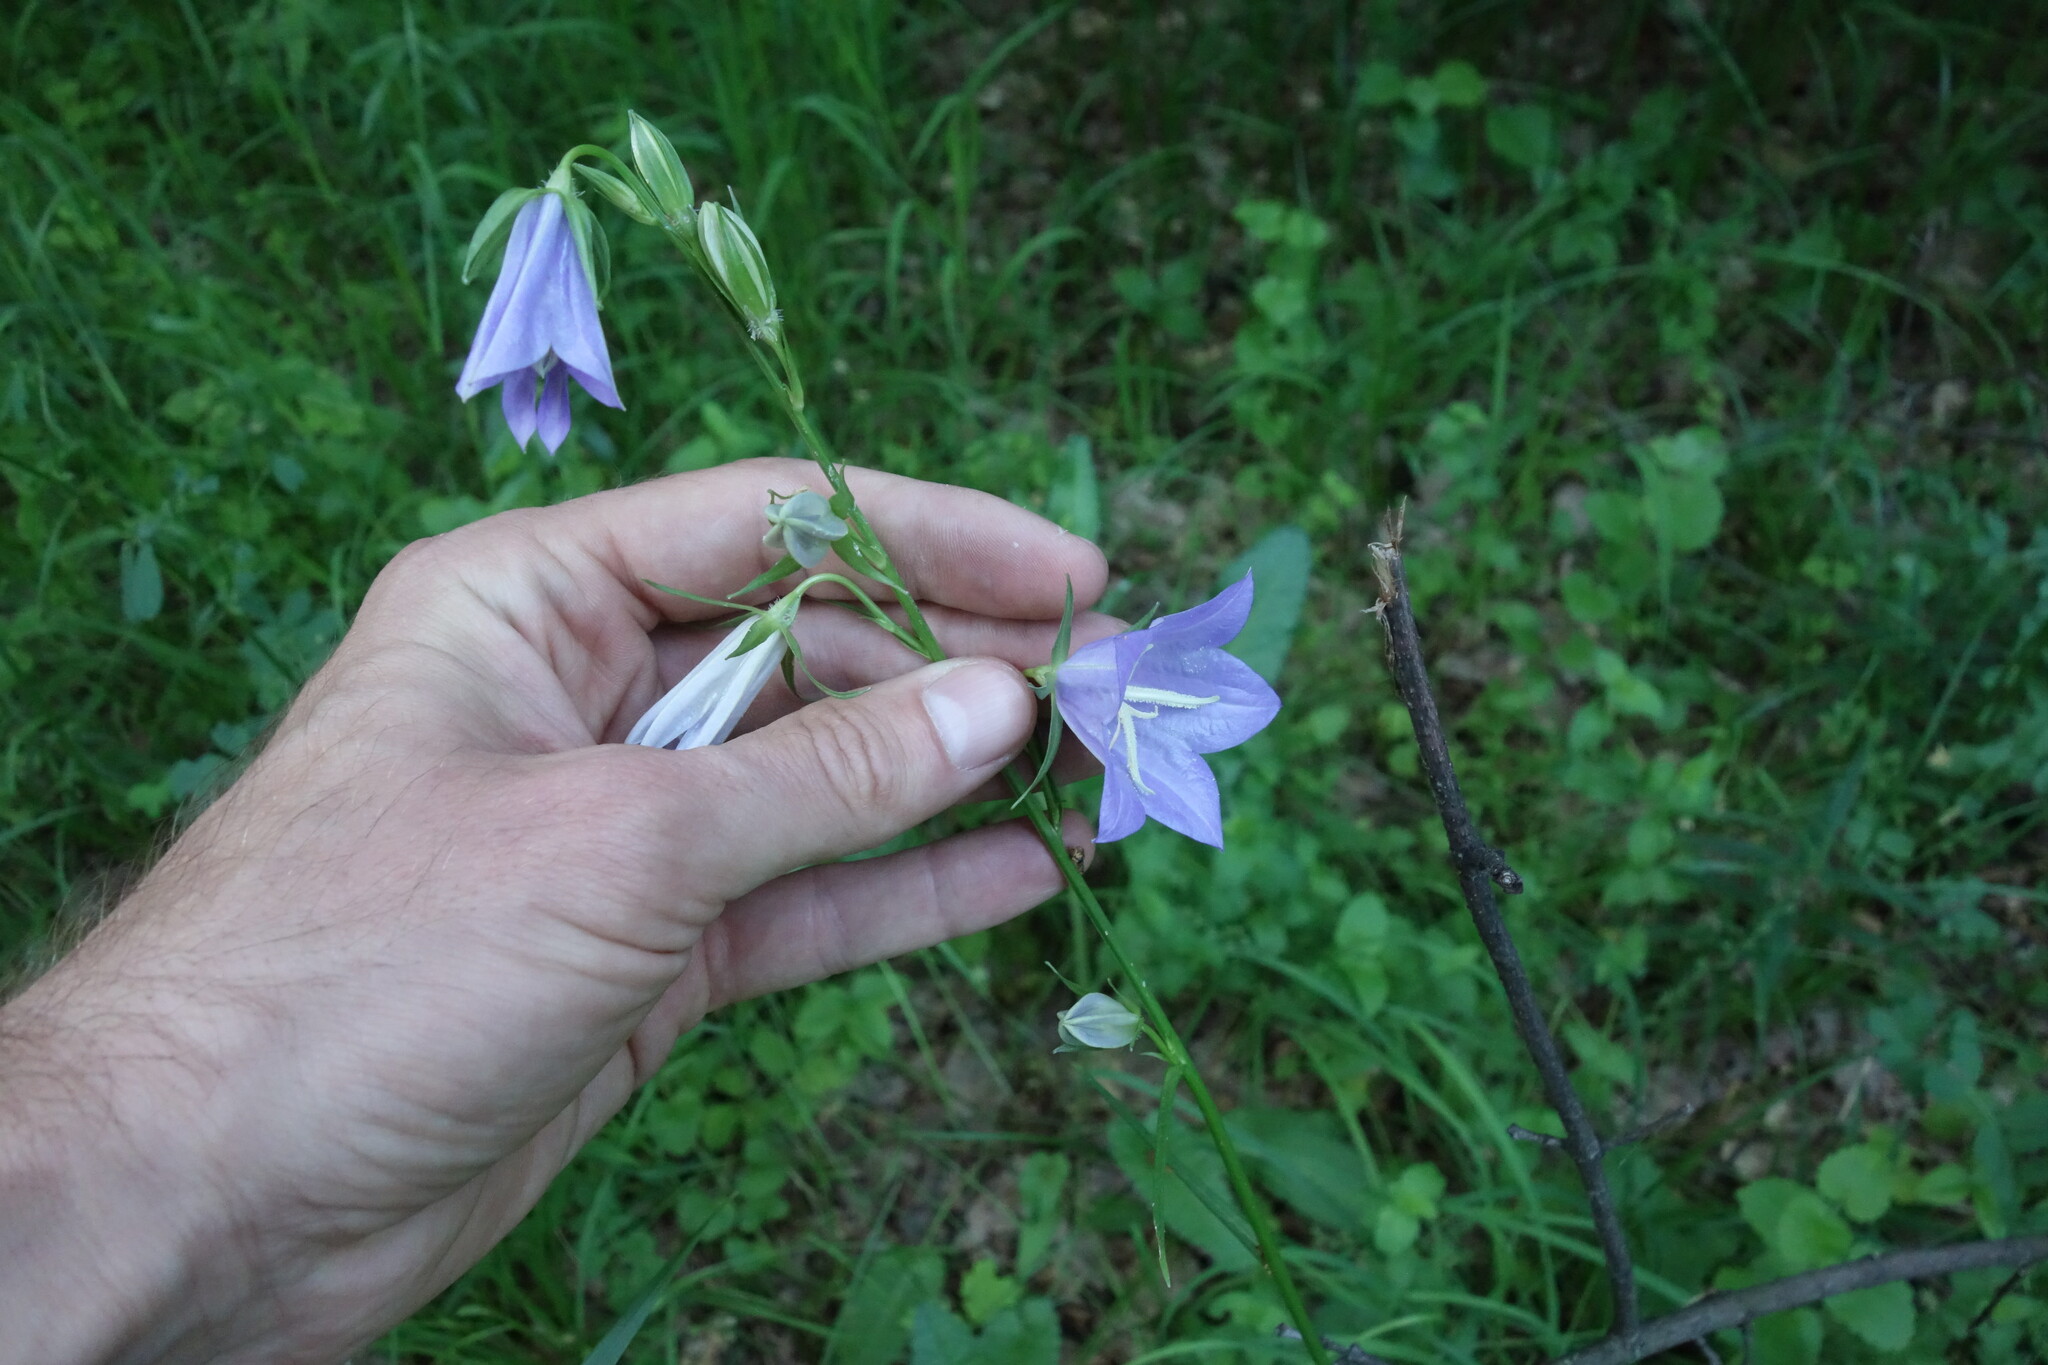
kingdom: Plantae
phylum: Tracheophyta
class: Magnoliopsida
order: Asterales
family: Campanulaceae
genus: Campanula
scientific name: Campanula persicifolia
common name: Peach-leaved bellflower
